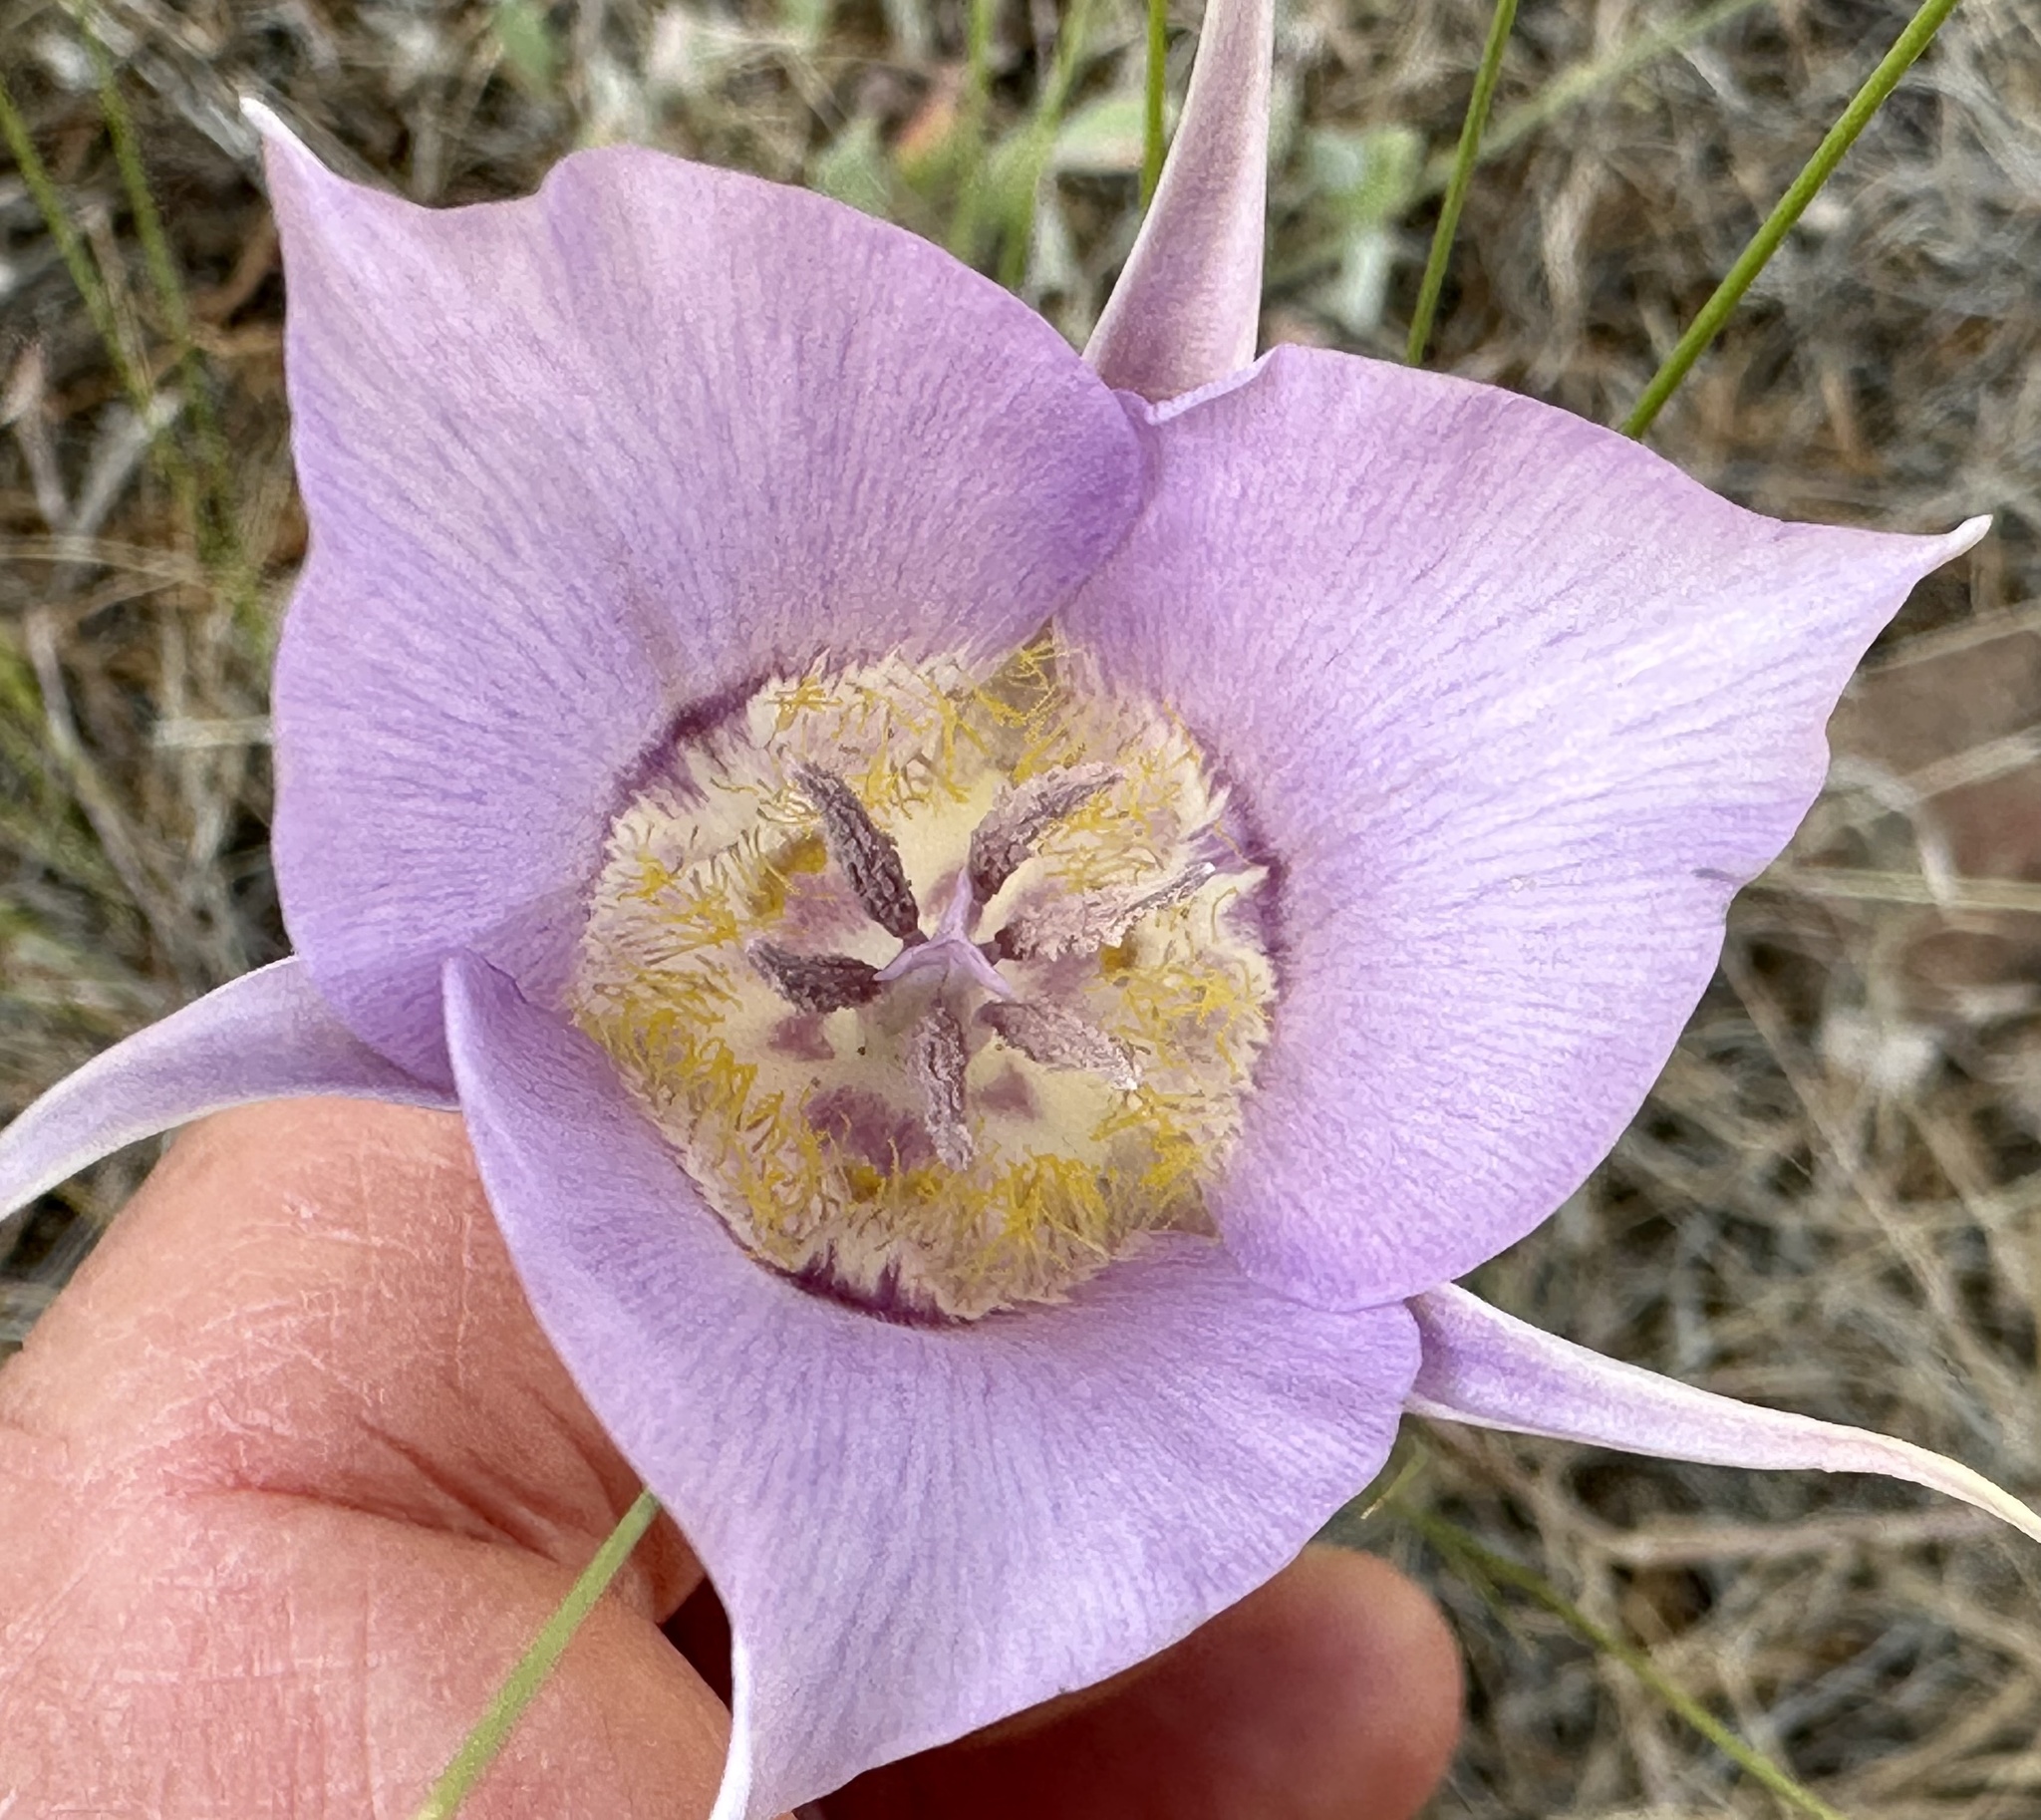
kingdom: Plantae
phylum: Tracheophyta
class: Liliopsida
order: Liliales
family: Liliaceae
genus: Calochortus
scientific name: Calochortus macrocarpus
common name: Green-band mariposa lily
